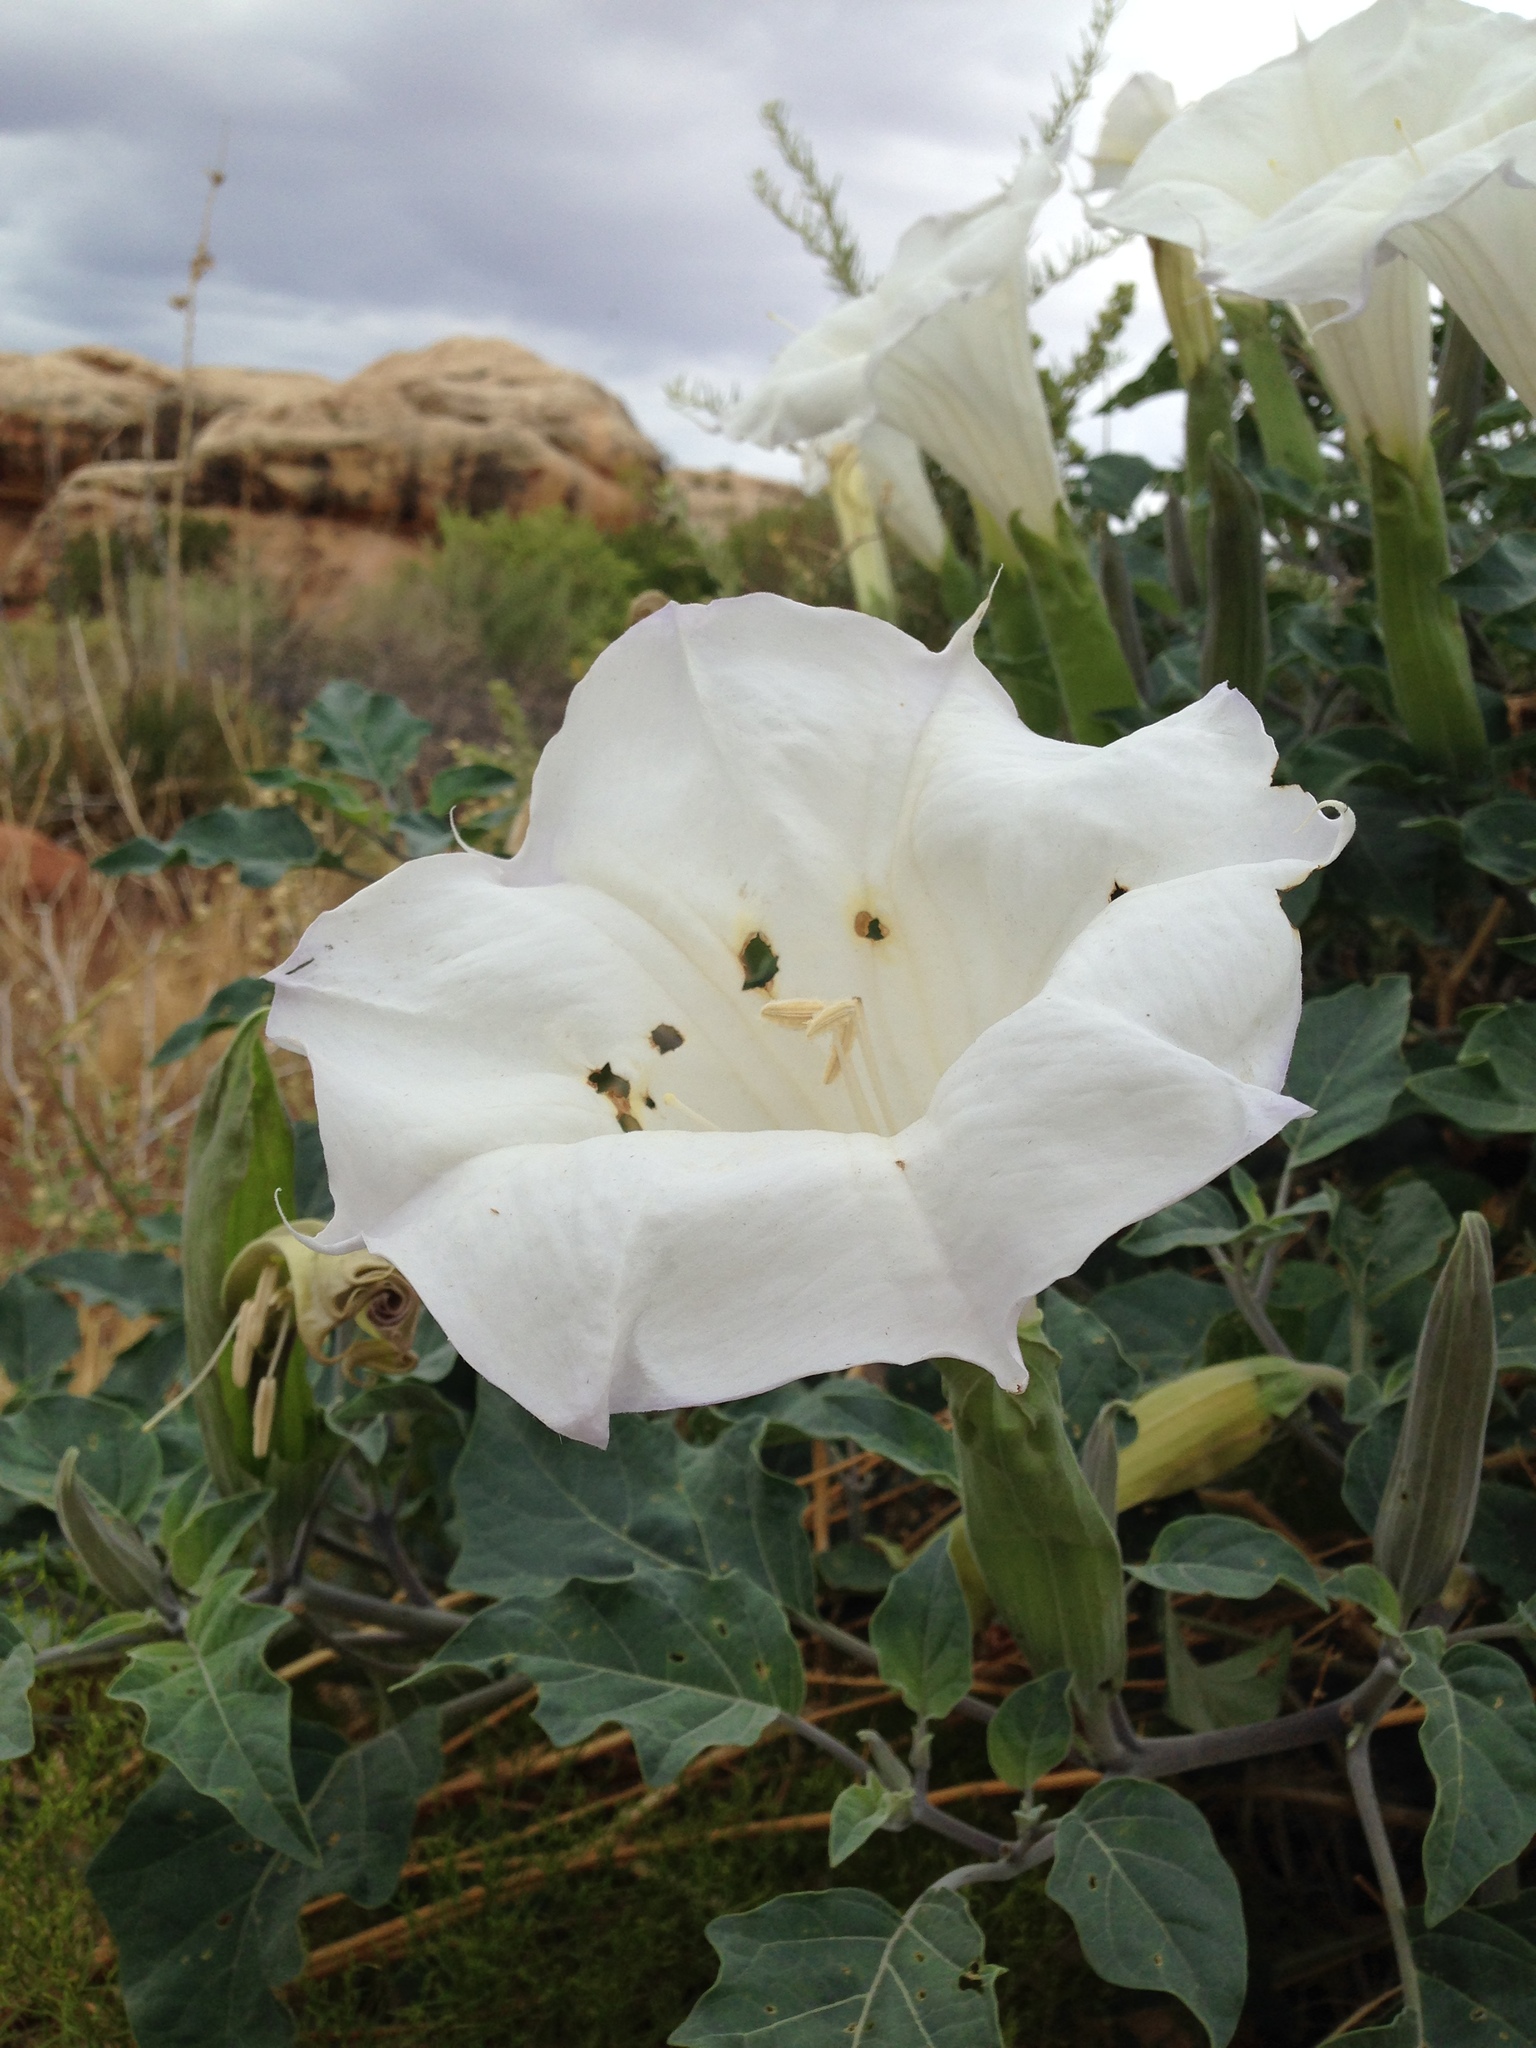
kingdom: Plantae
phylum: Tracheophyta
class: Magnoliopsida
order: Solanales
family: Solanaceae
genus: Datura
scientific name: Datura wrightii
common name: Sacred thorn-apple
